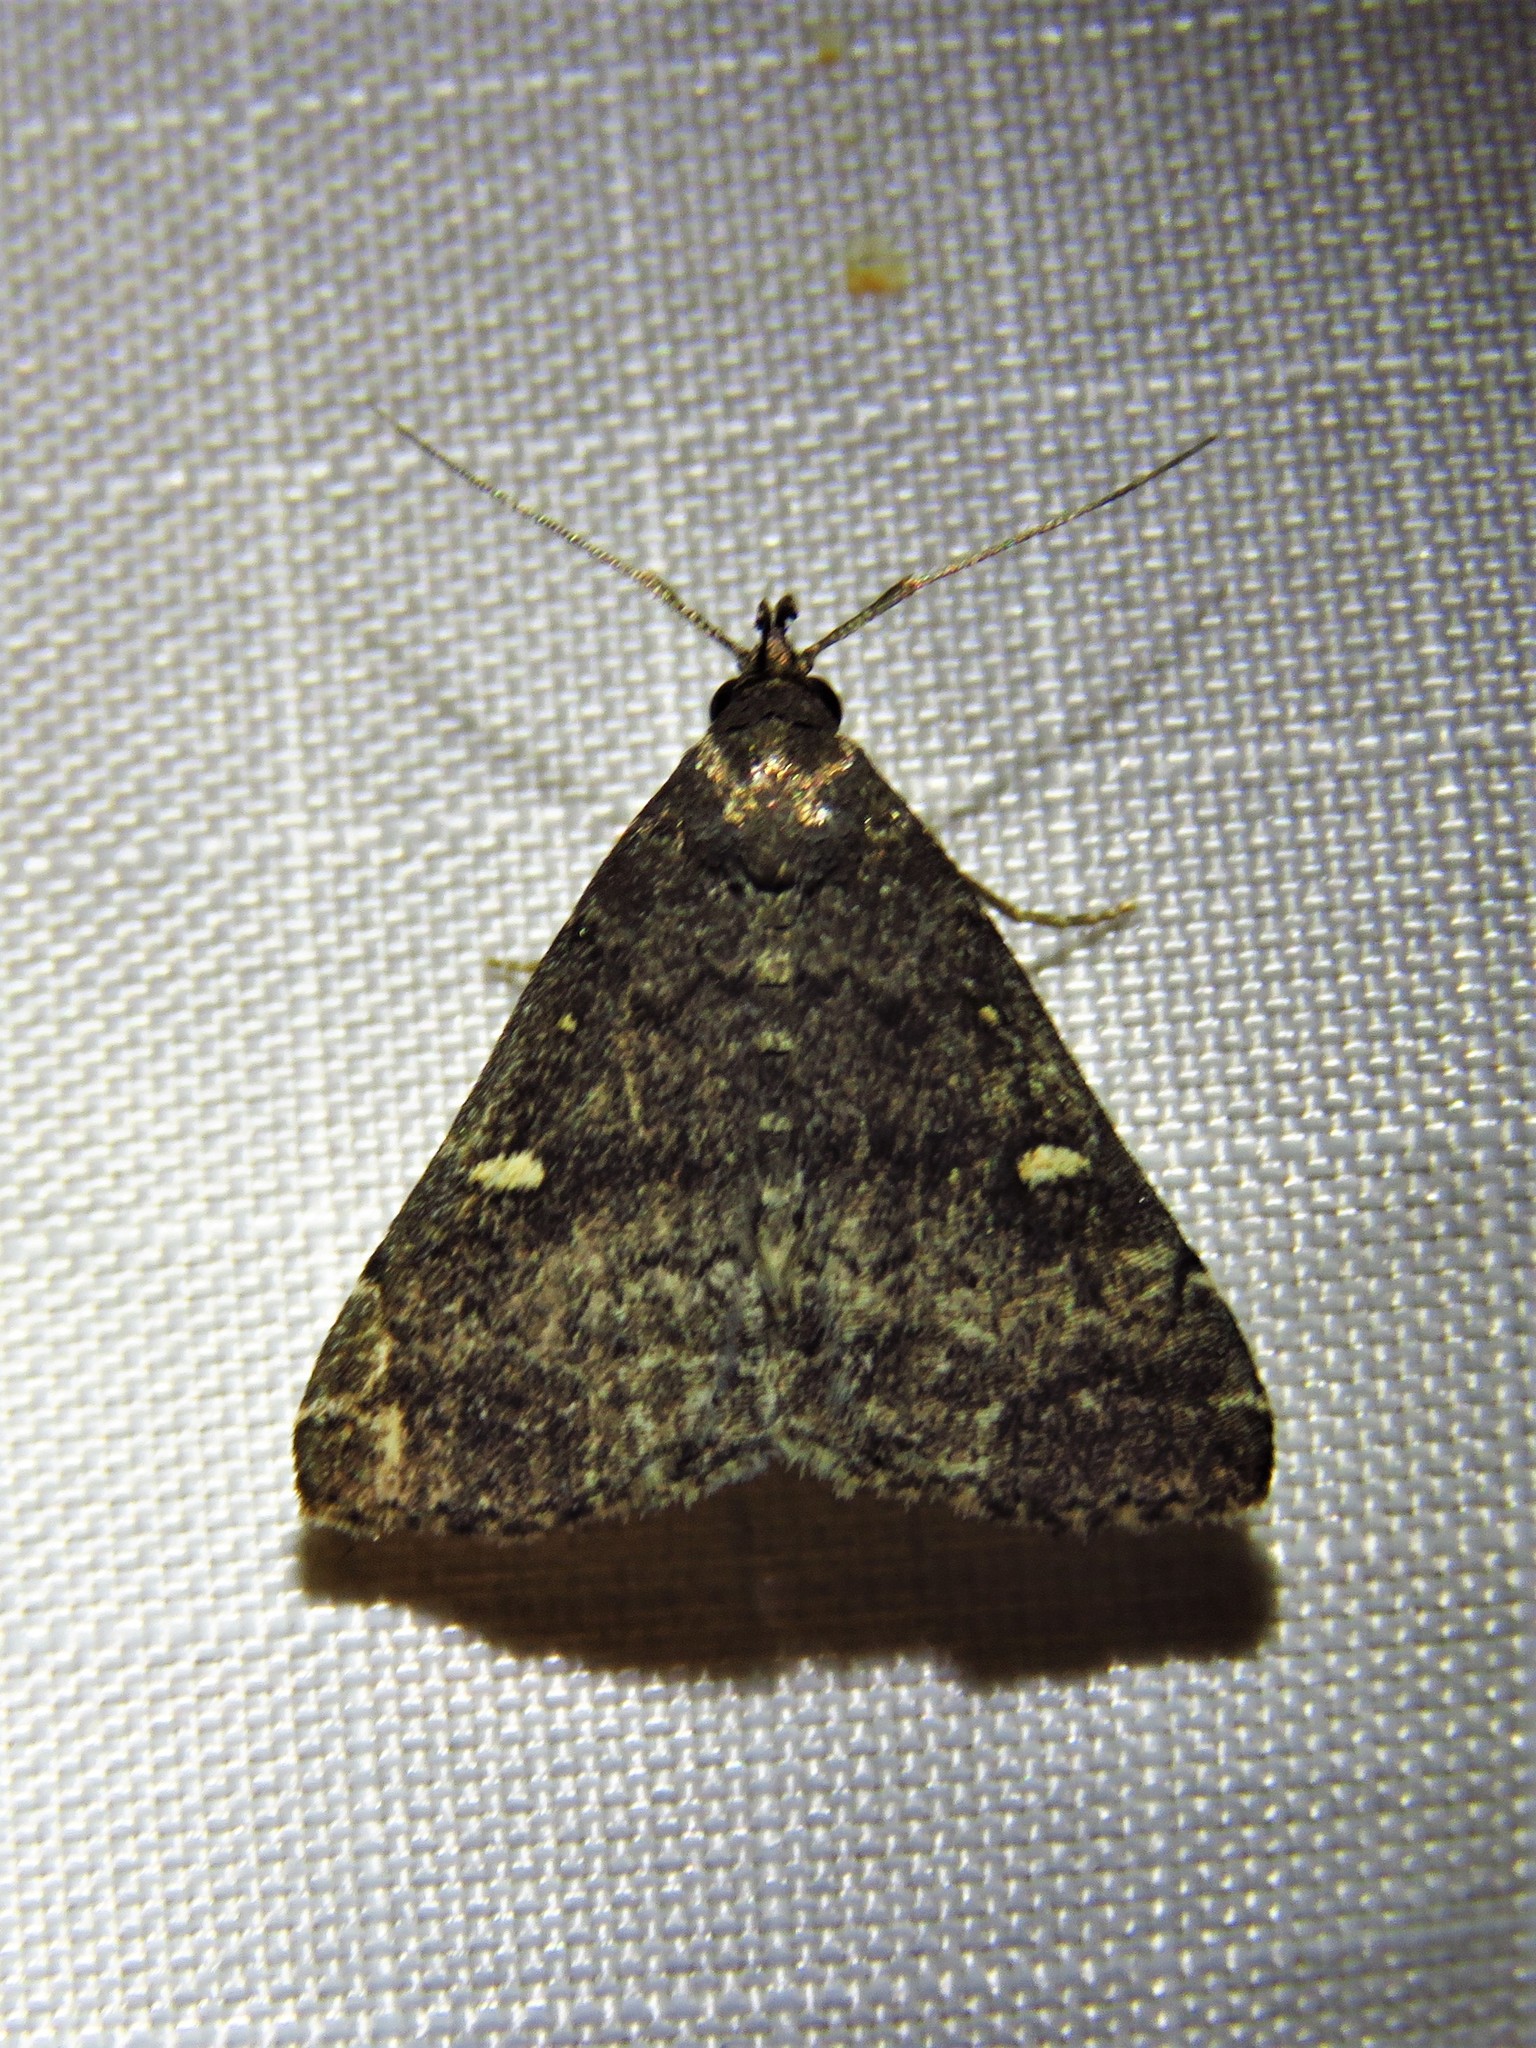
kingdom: Animalia
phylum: Arthropoda
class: Insecta
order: Lepidoptera
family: Erebidae
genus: Tetanolita
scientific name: Tetanolita mynesalis
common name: Smoky tetanolita moth
